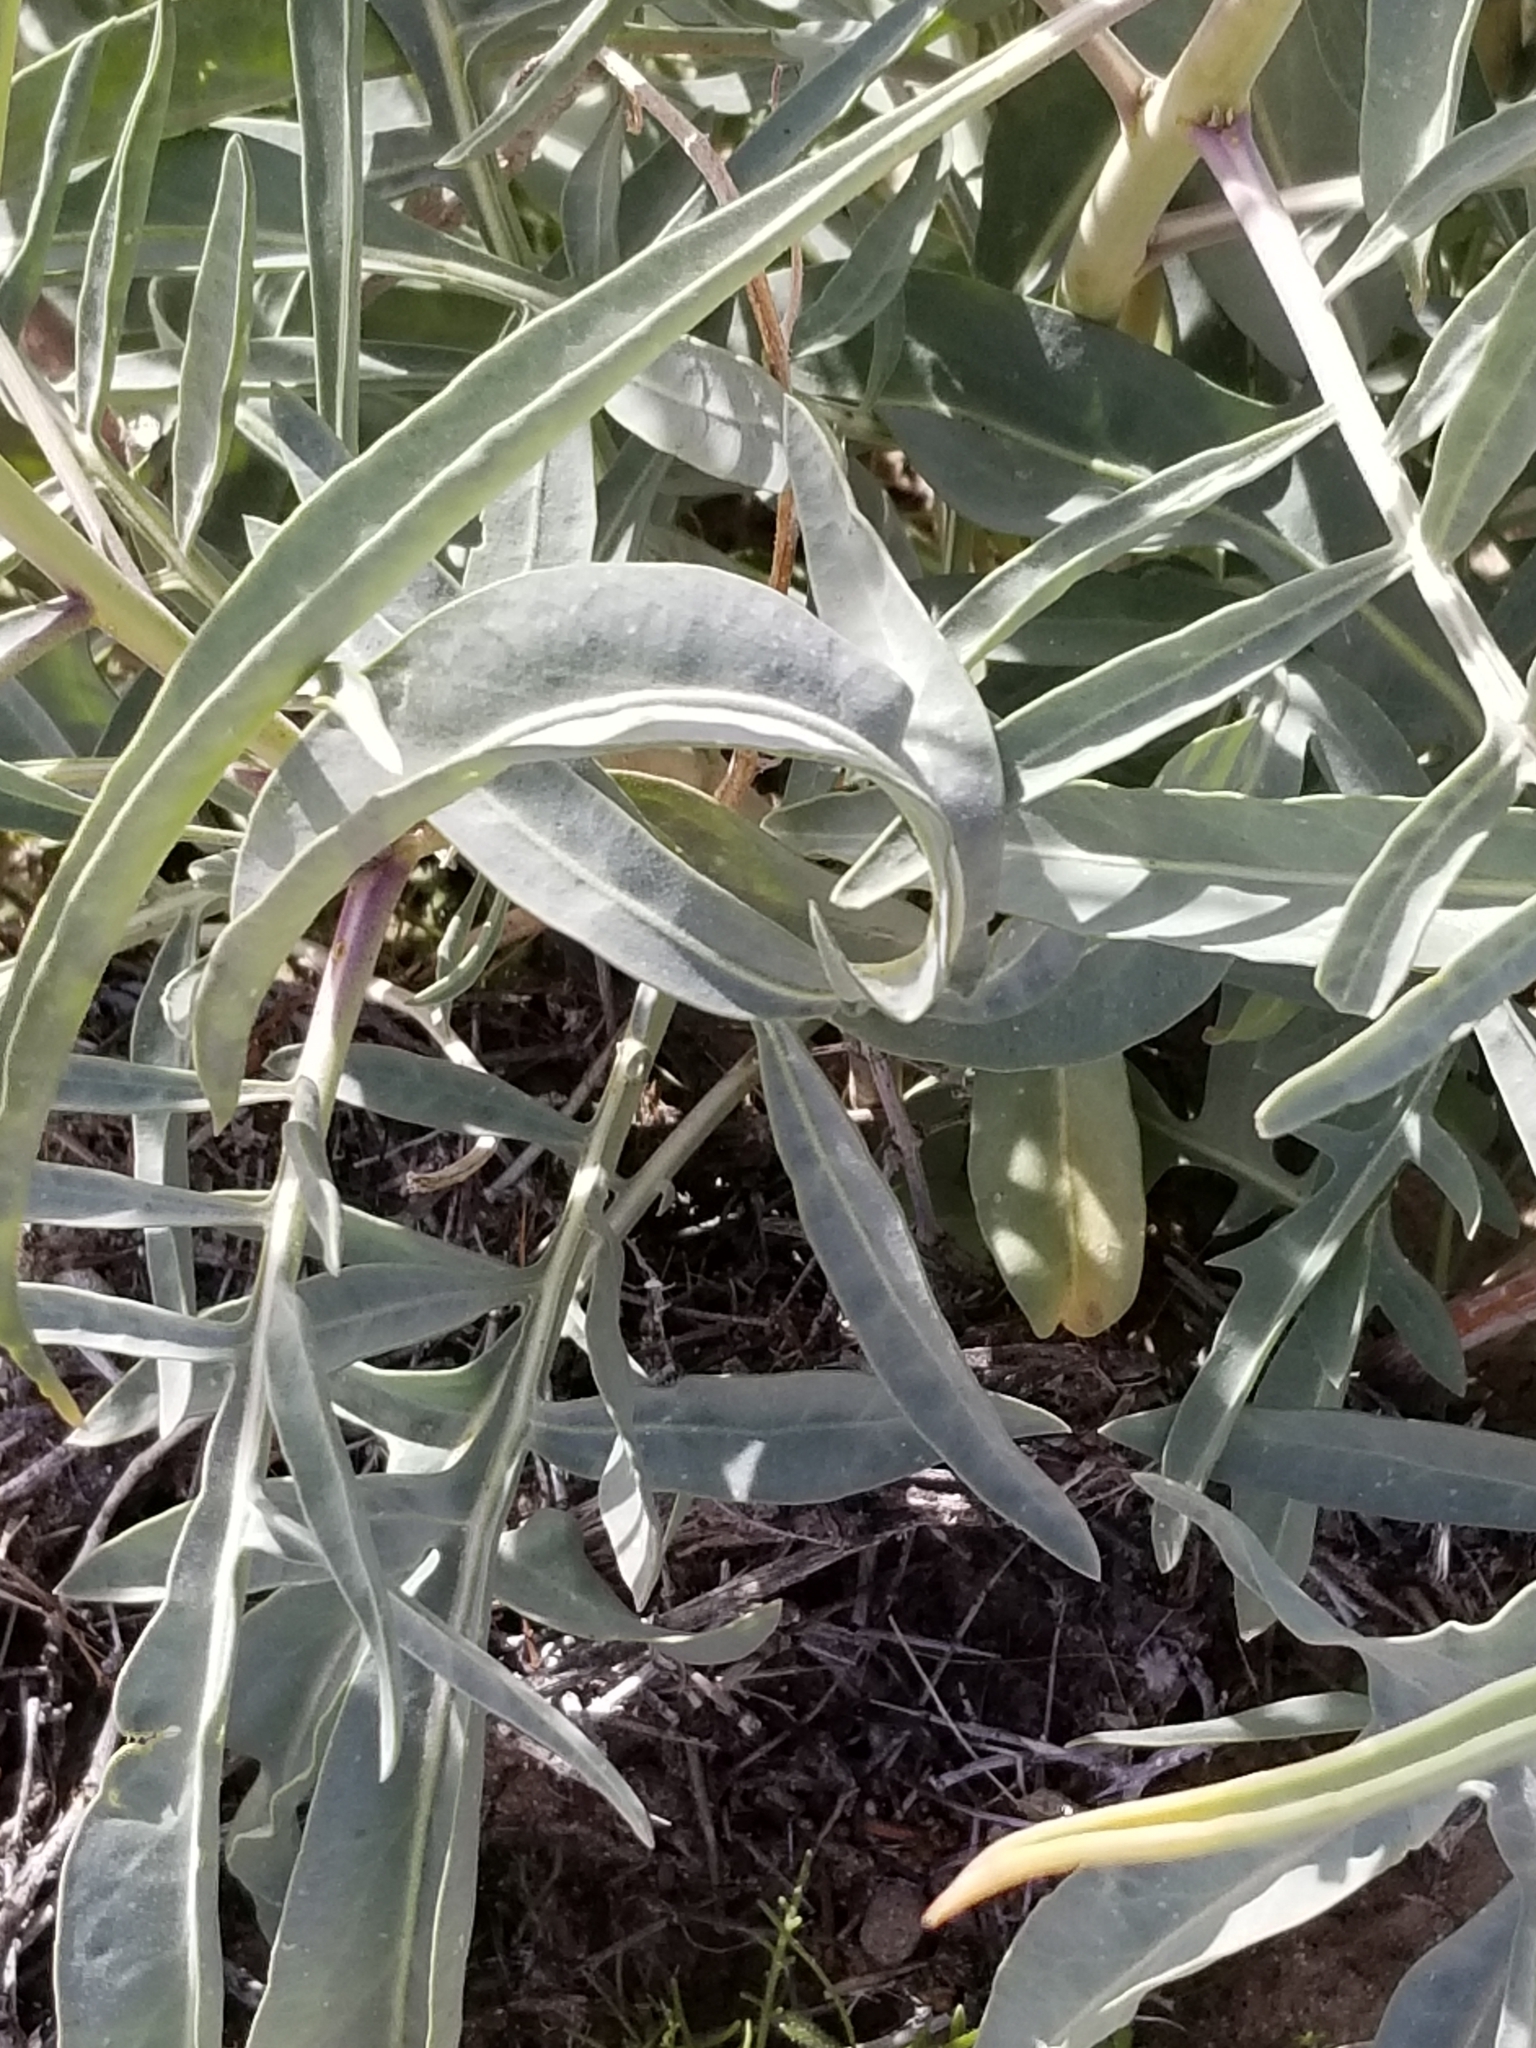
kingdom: Plantae
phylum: Tracheophyta
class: Magnoliopsida
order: Brassicales
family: Brassicaceae
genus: Stanleya
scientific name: Stanleya pinnata
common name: Prince's-plume
